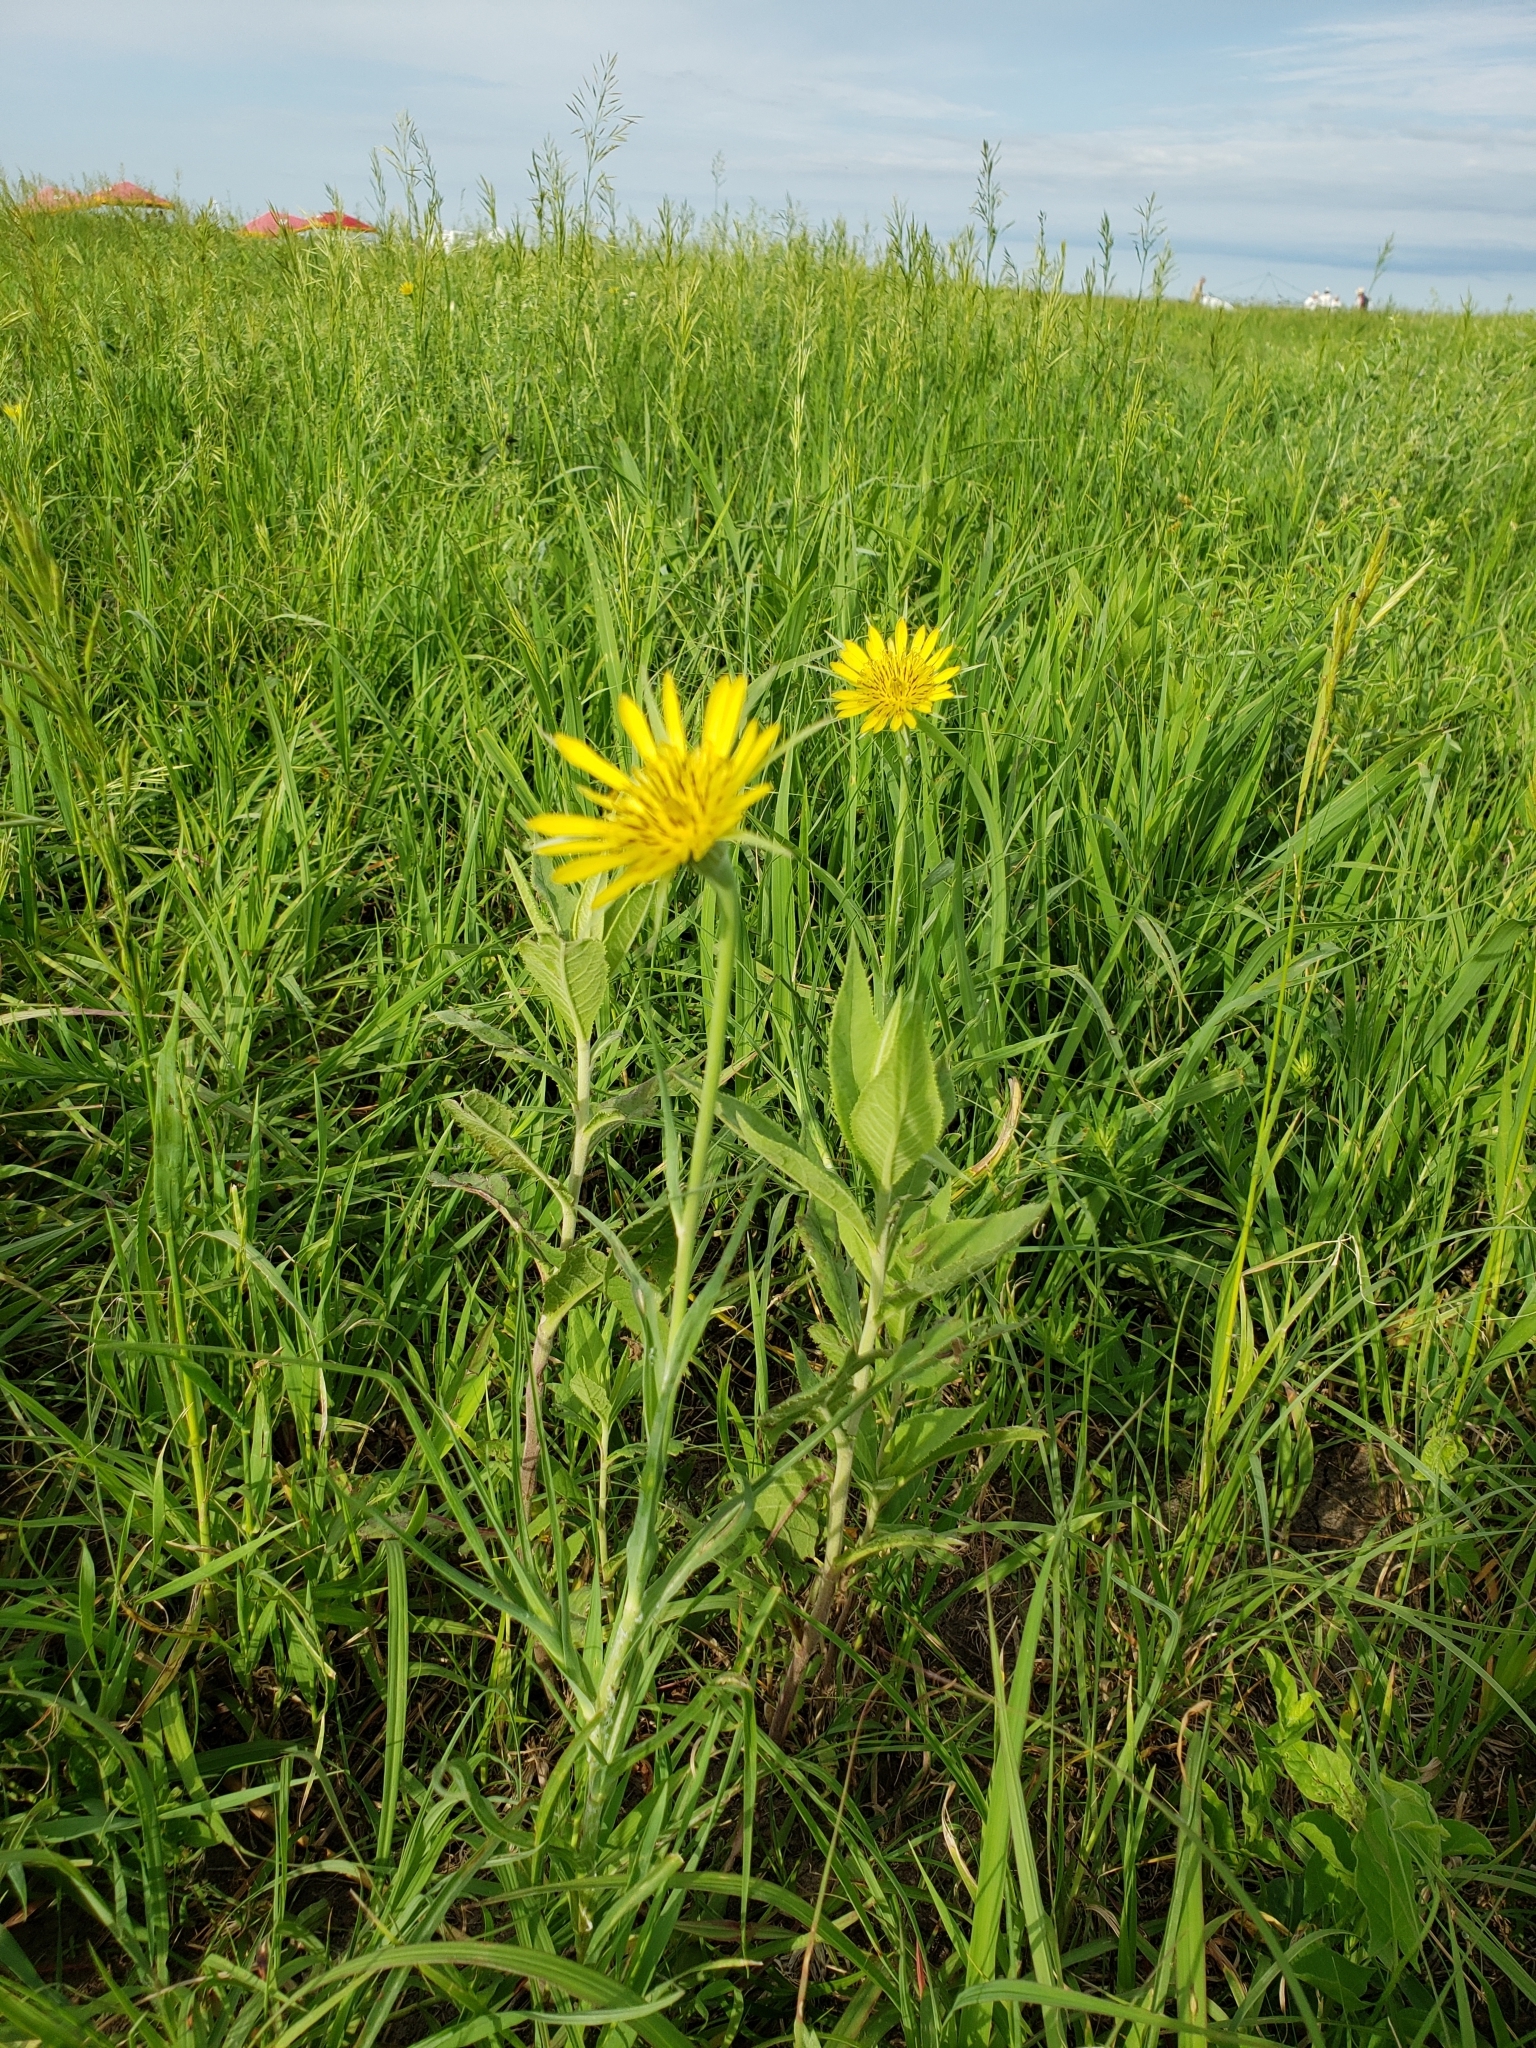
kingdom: Plantae
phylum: Tracheophyta
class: Magnoliopsida
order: Asterales
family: Asteraceae
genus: Tragopogon
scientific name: Tragopogon dubius
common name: Yellow salsify
